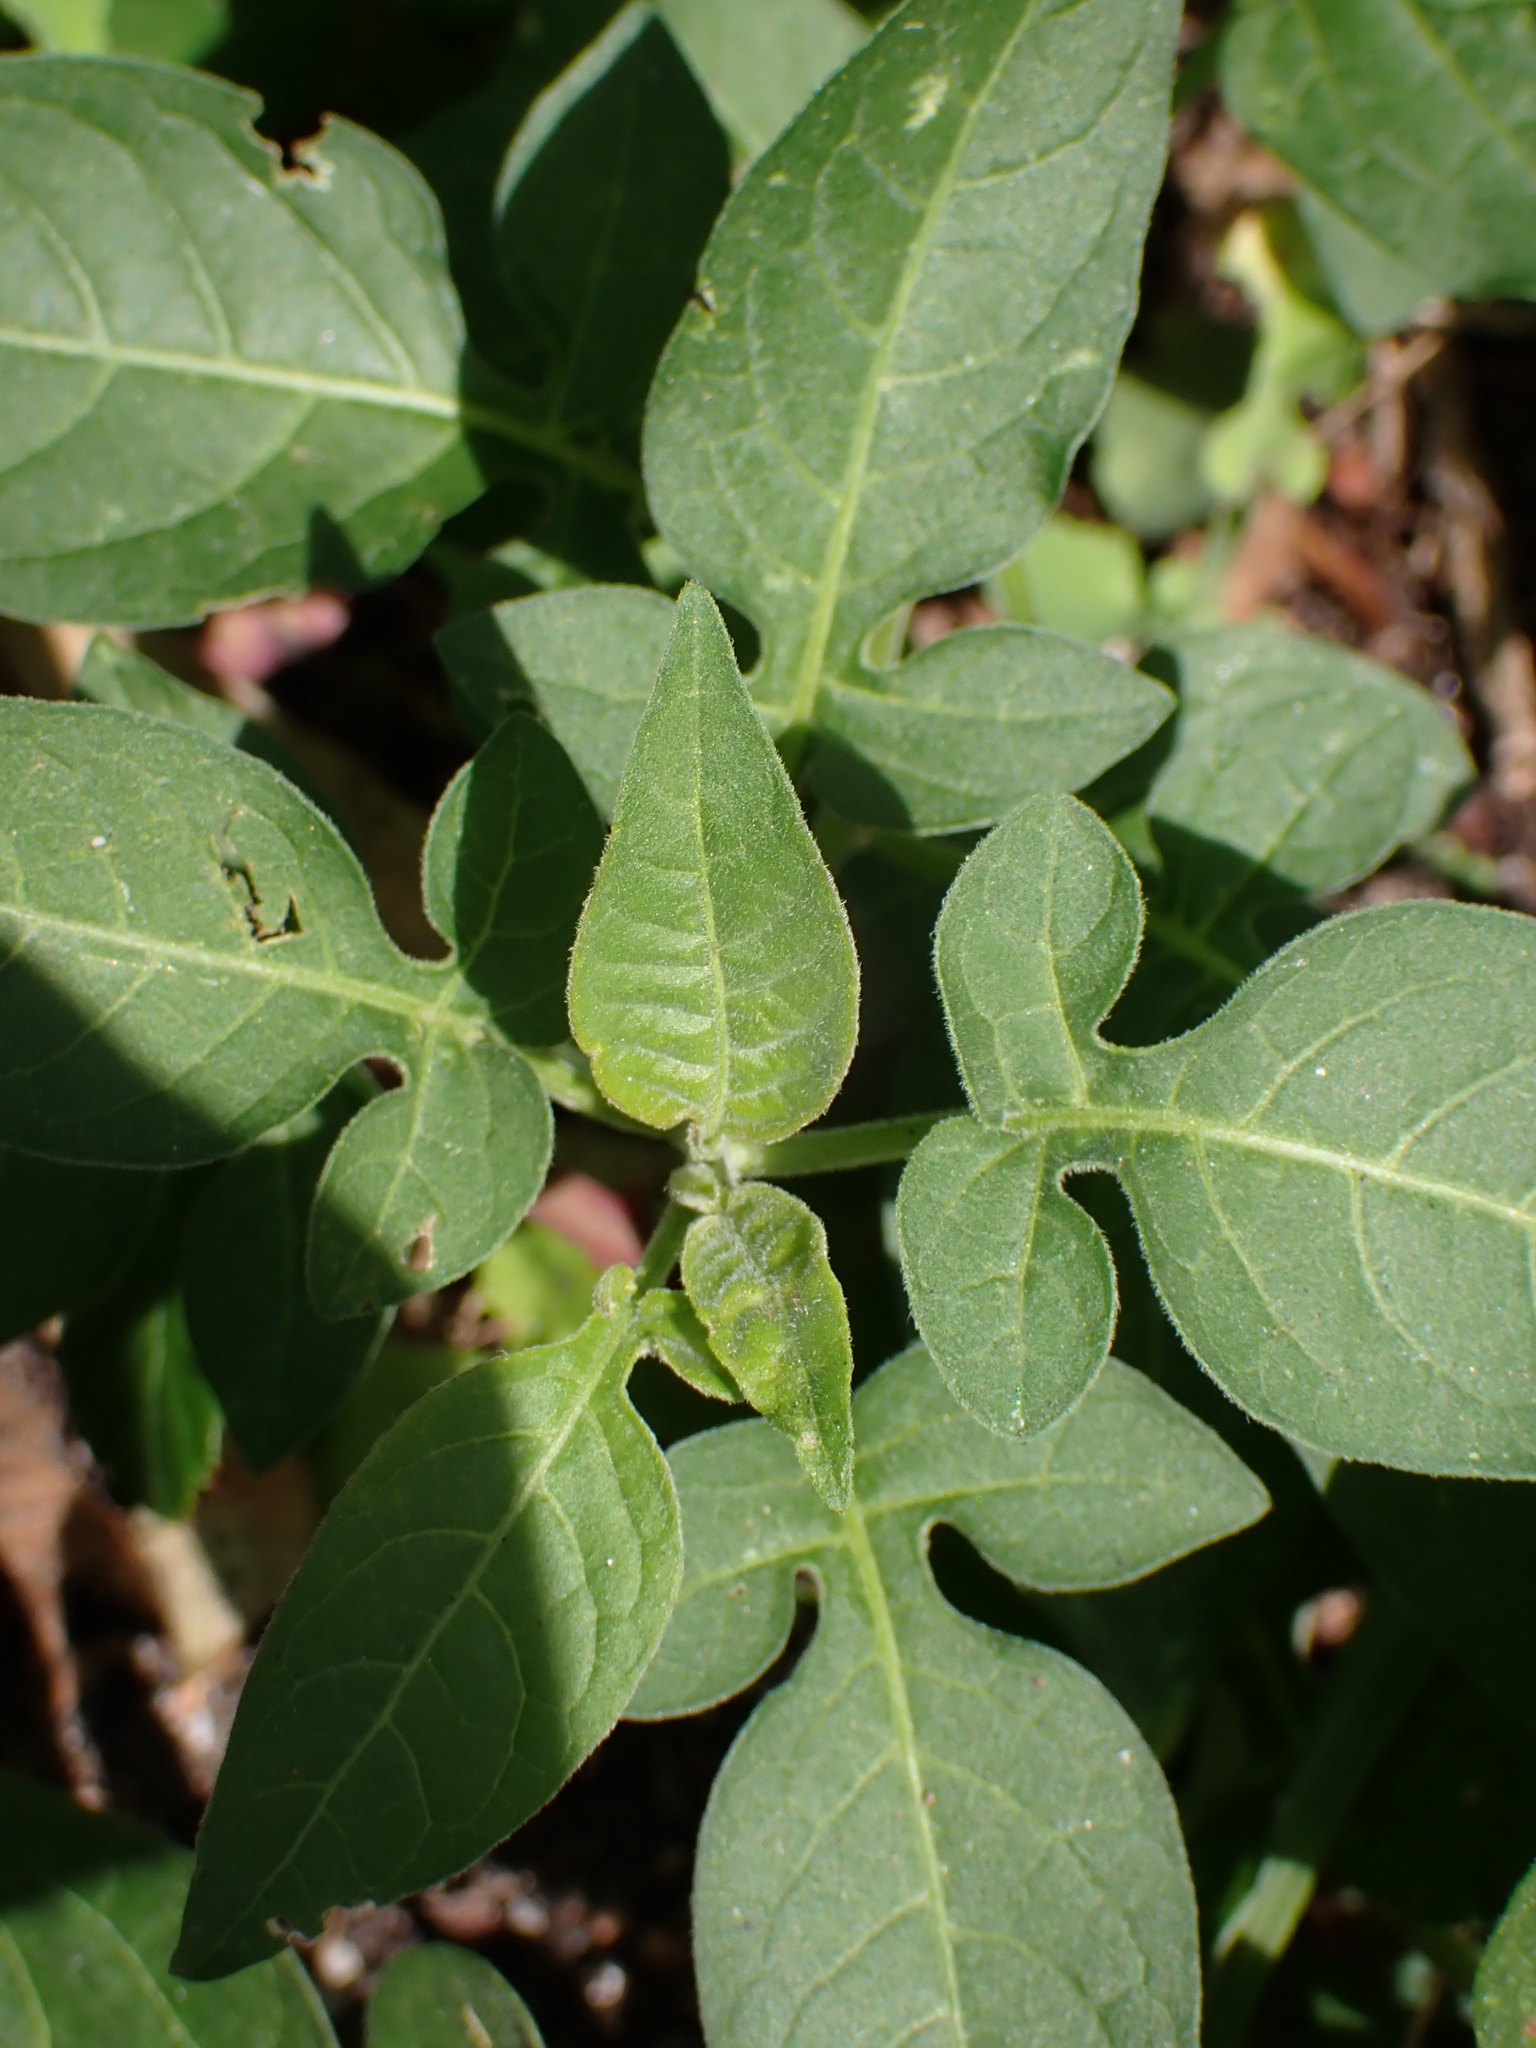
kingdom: Plantae
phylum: Tracheophyta
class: Magnoliopsida
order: Solanales
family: Solanaceae
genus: Solanum
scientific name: Solanum dulcamara
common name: Climbing nightshade
